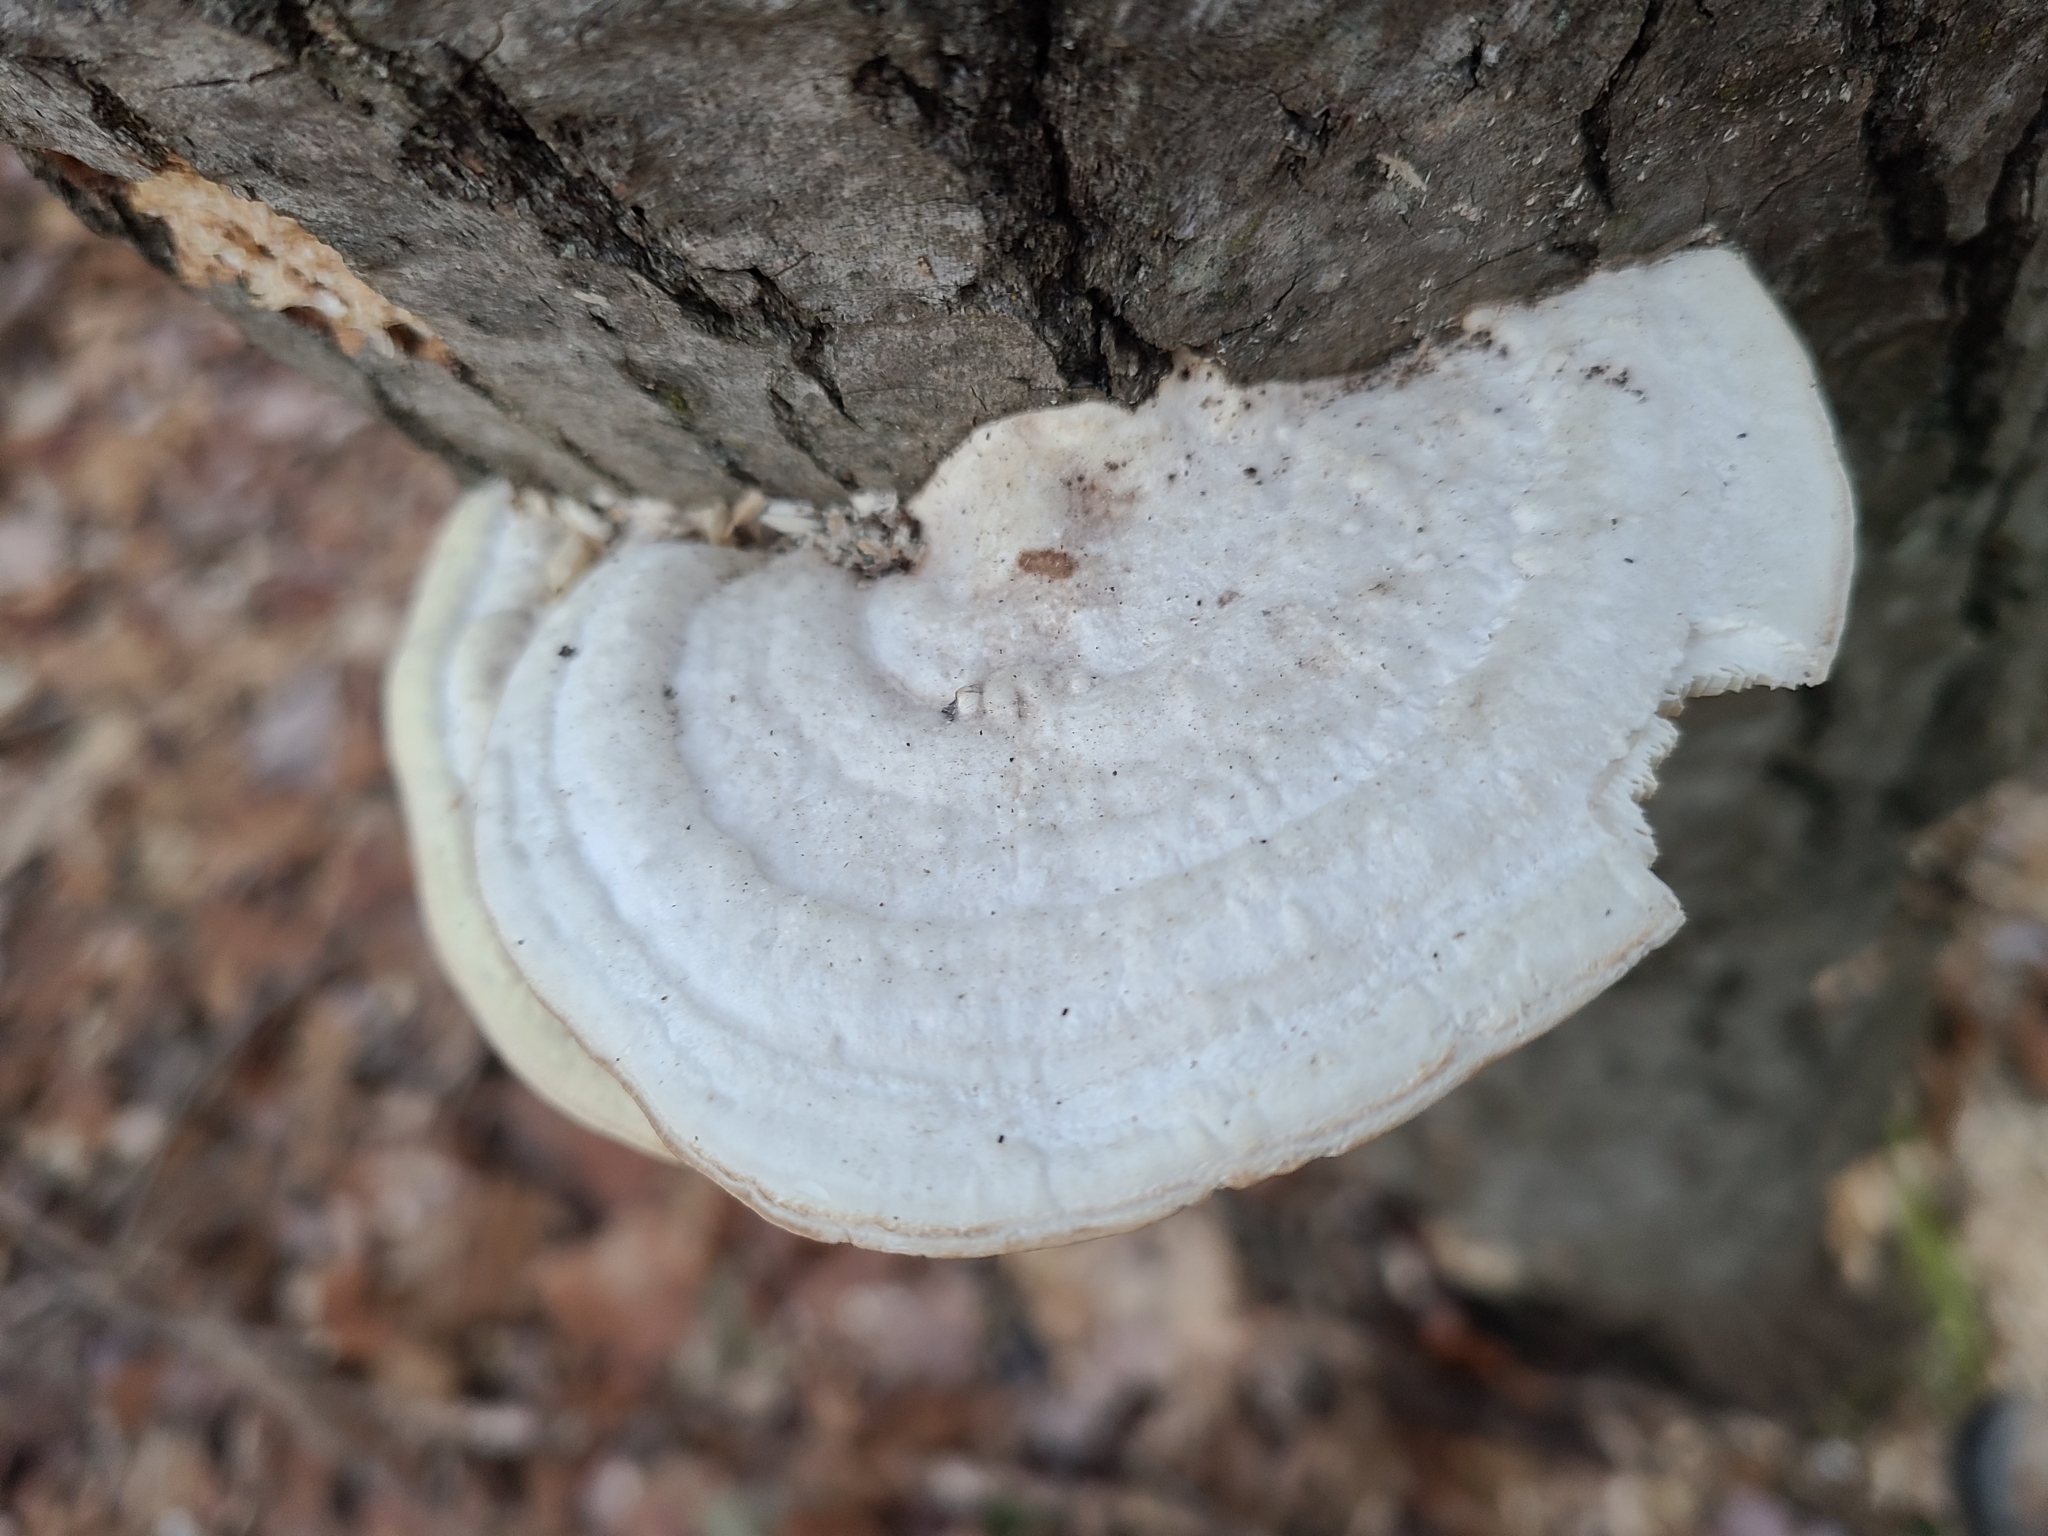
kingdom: Fungi
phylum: Basidiomycota
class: Agaricomycetes
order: Polyporales
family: Polyporaceae
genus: Trametes
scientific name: Trametes gibbosa
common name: Lumpy bracket
